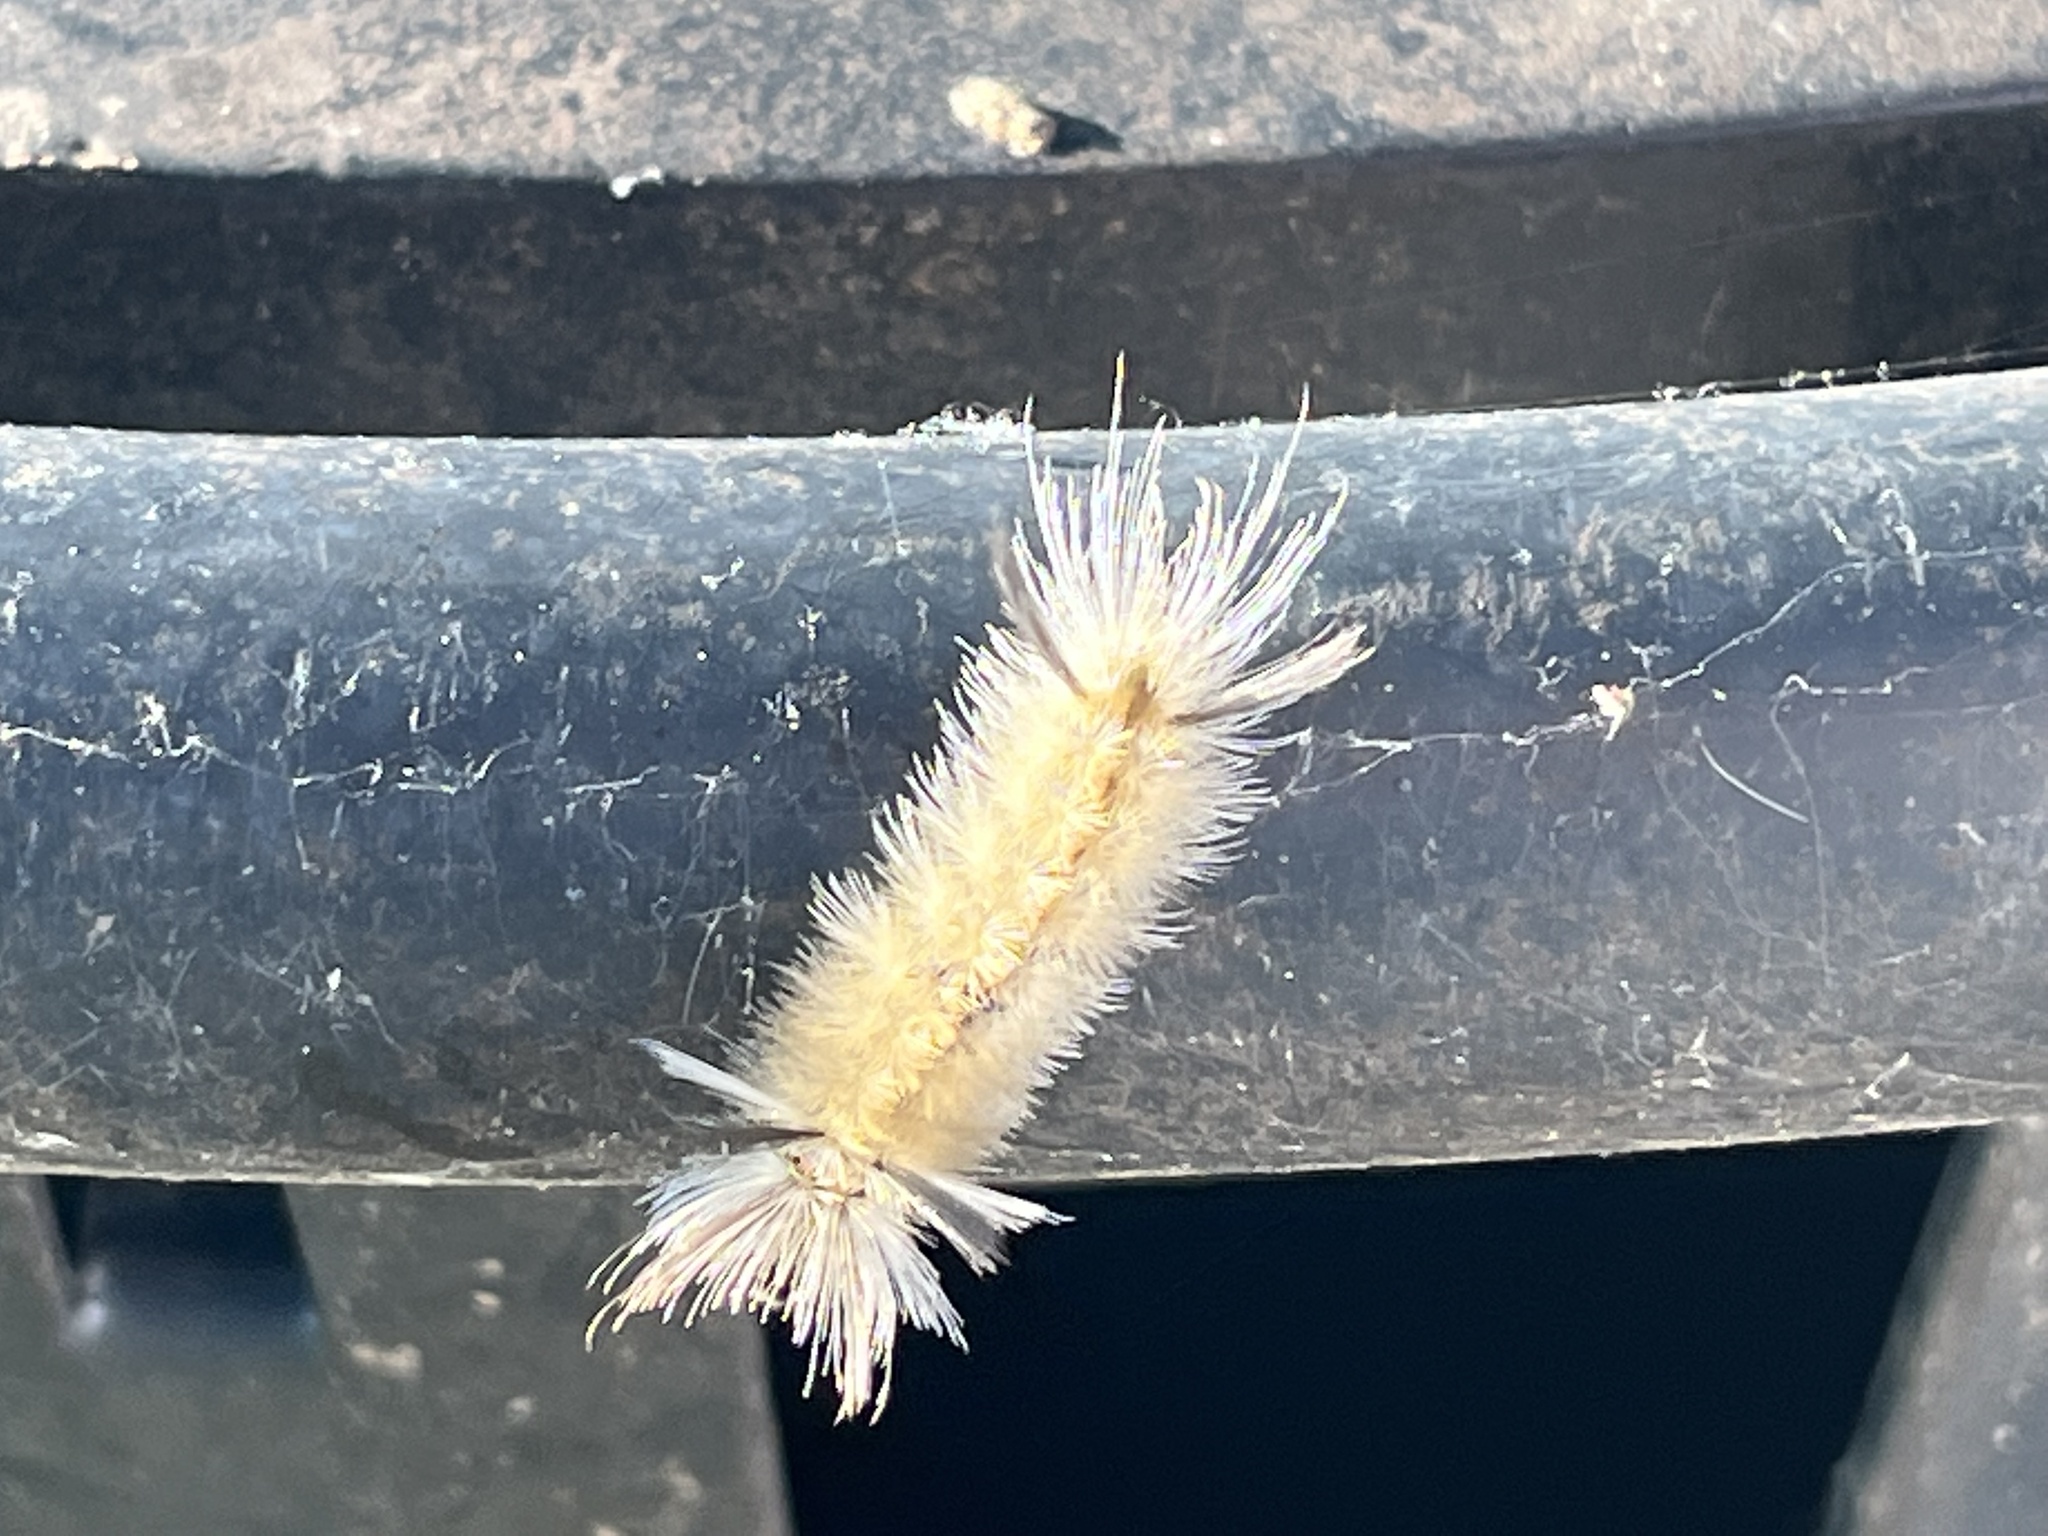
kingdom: Animalia
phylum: Arthropoda
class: Insecta
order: Lepidoptera
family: Erebidae
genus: Halysidota
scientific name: Halysidota tessellaris
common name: Banded tussock moth
